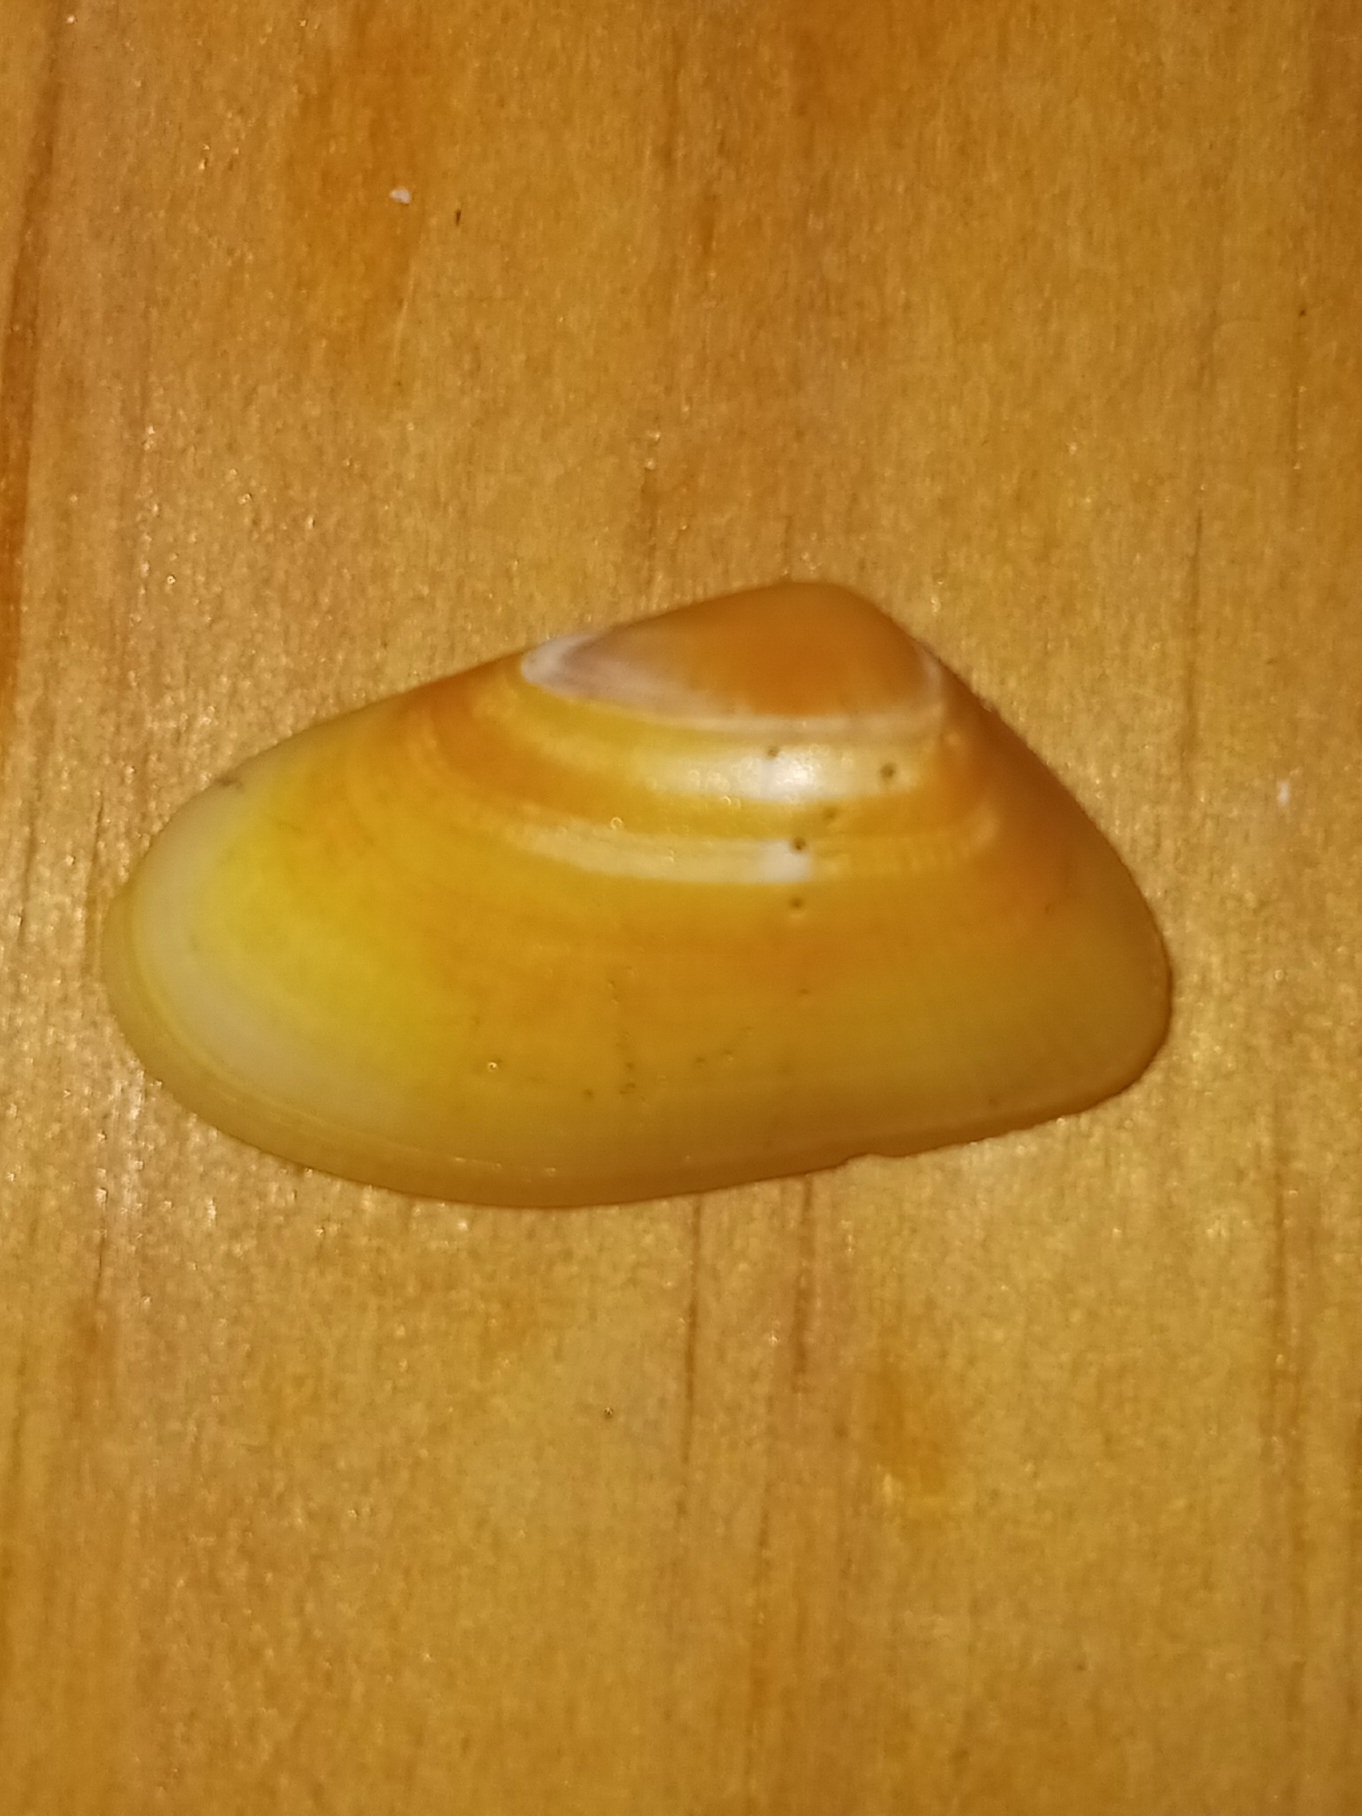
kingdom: Animalia
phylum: Mollusca
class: Bivalvia
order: Cardiida
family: Donacidae
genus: Donax
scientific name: Donax variabilis
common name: Butterfly shell
